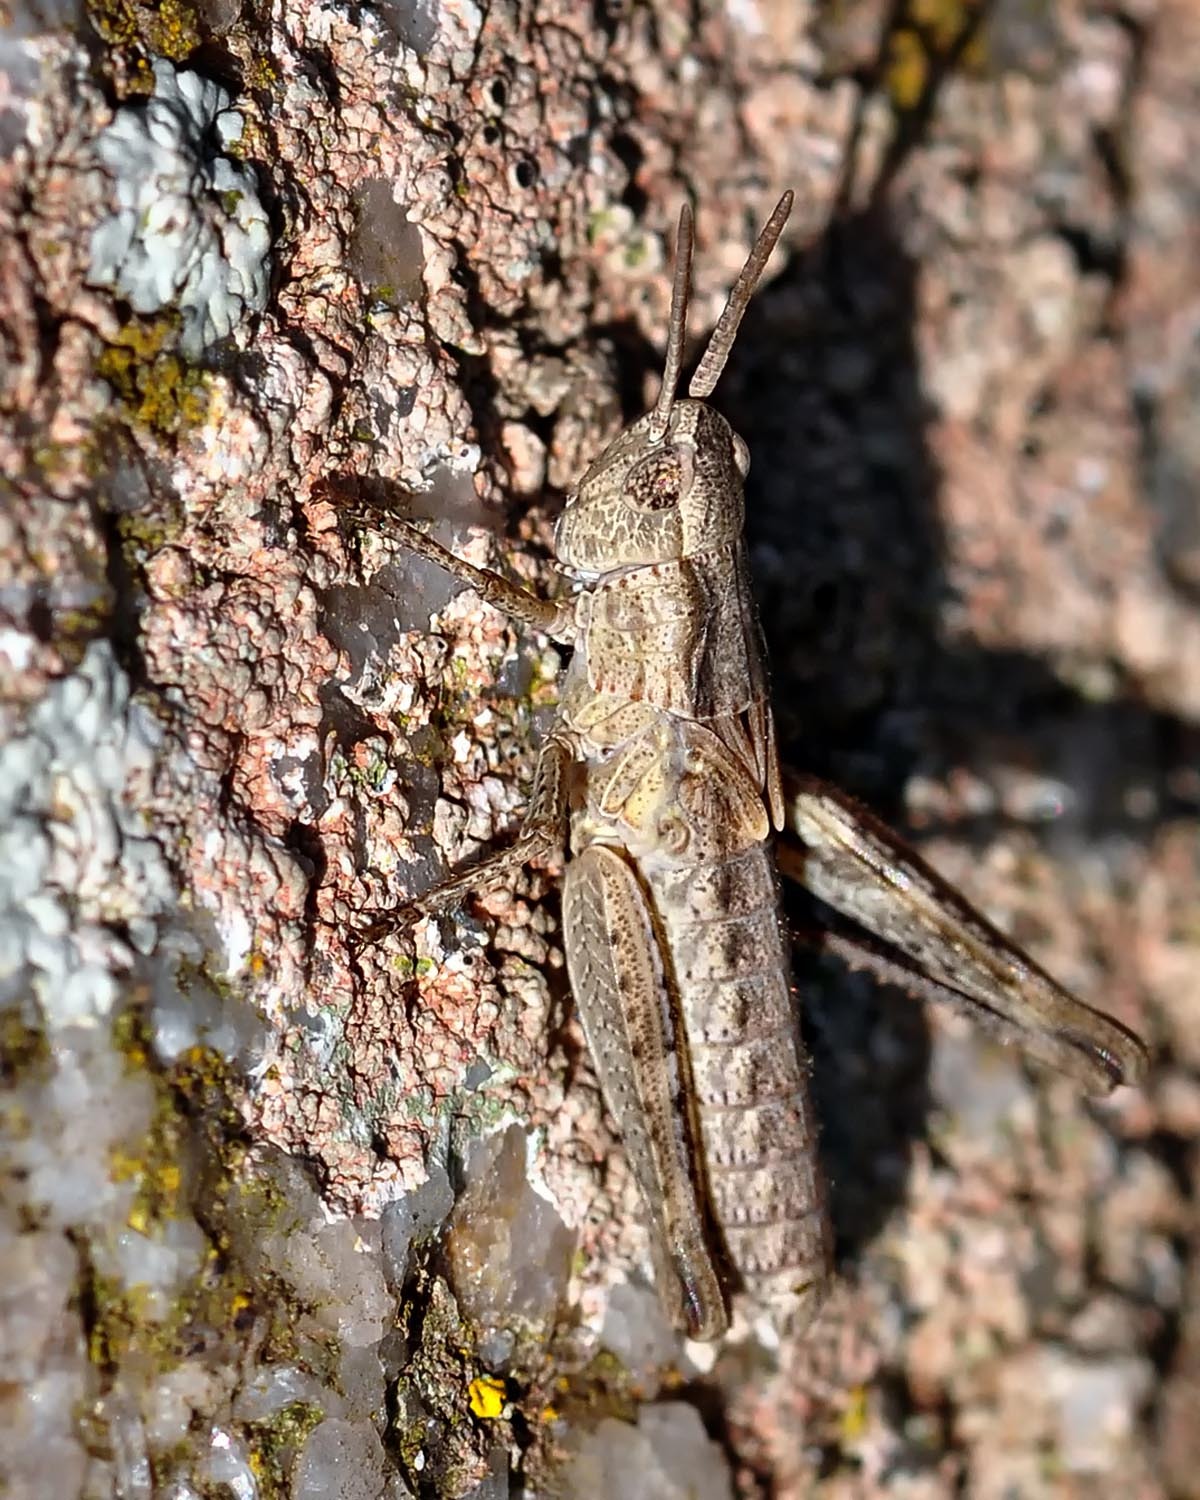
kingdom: Animalia
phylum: Arthropoda
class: Insecta
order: Orthoptera
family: Acrididae
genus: Chorthippus
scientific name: Chorthippus brunneus
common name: Field grasshopper
